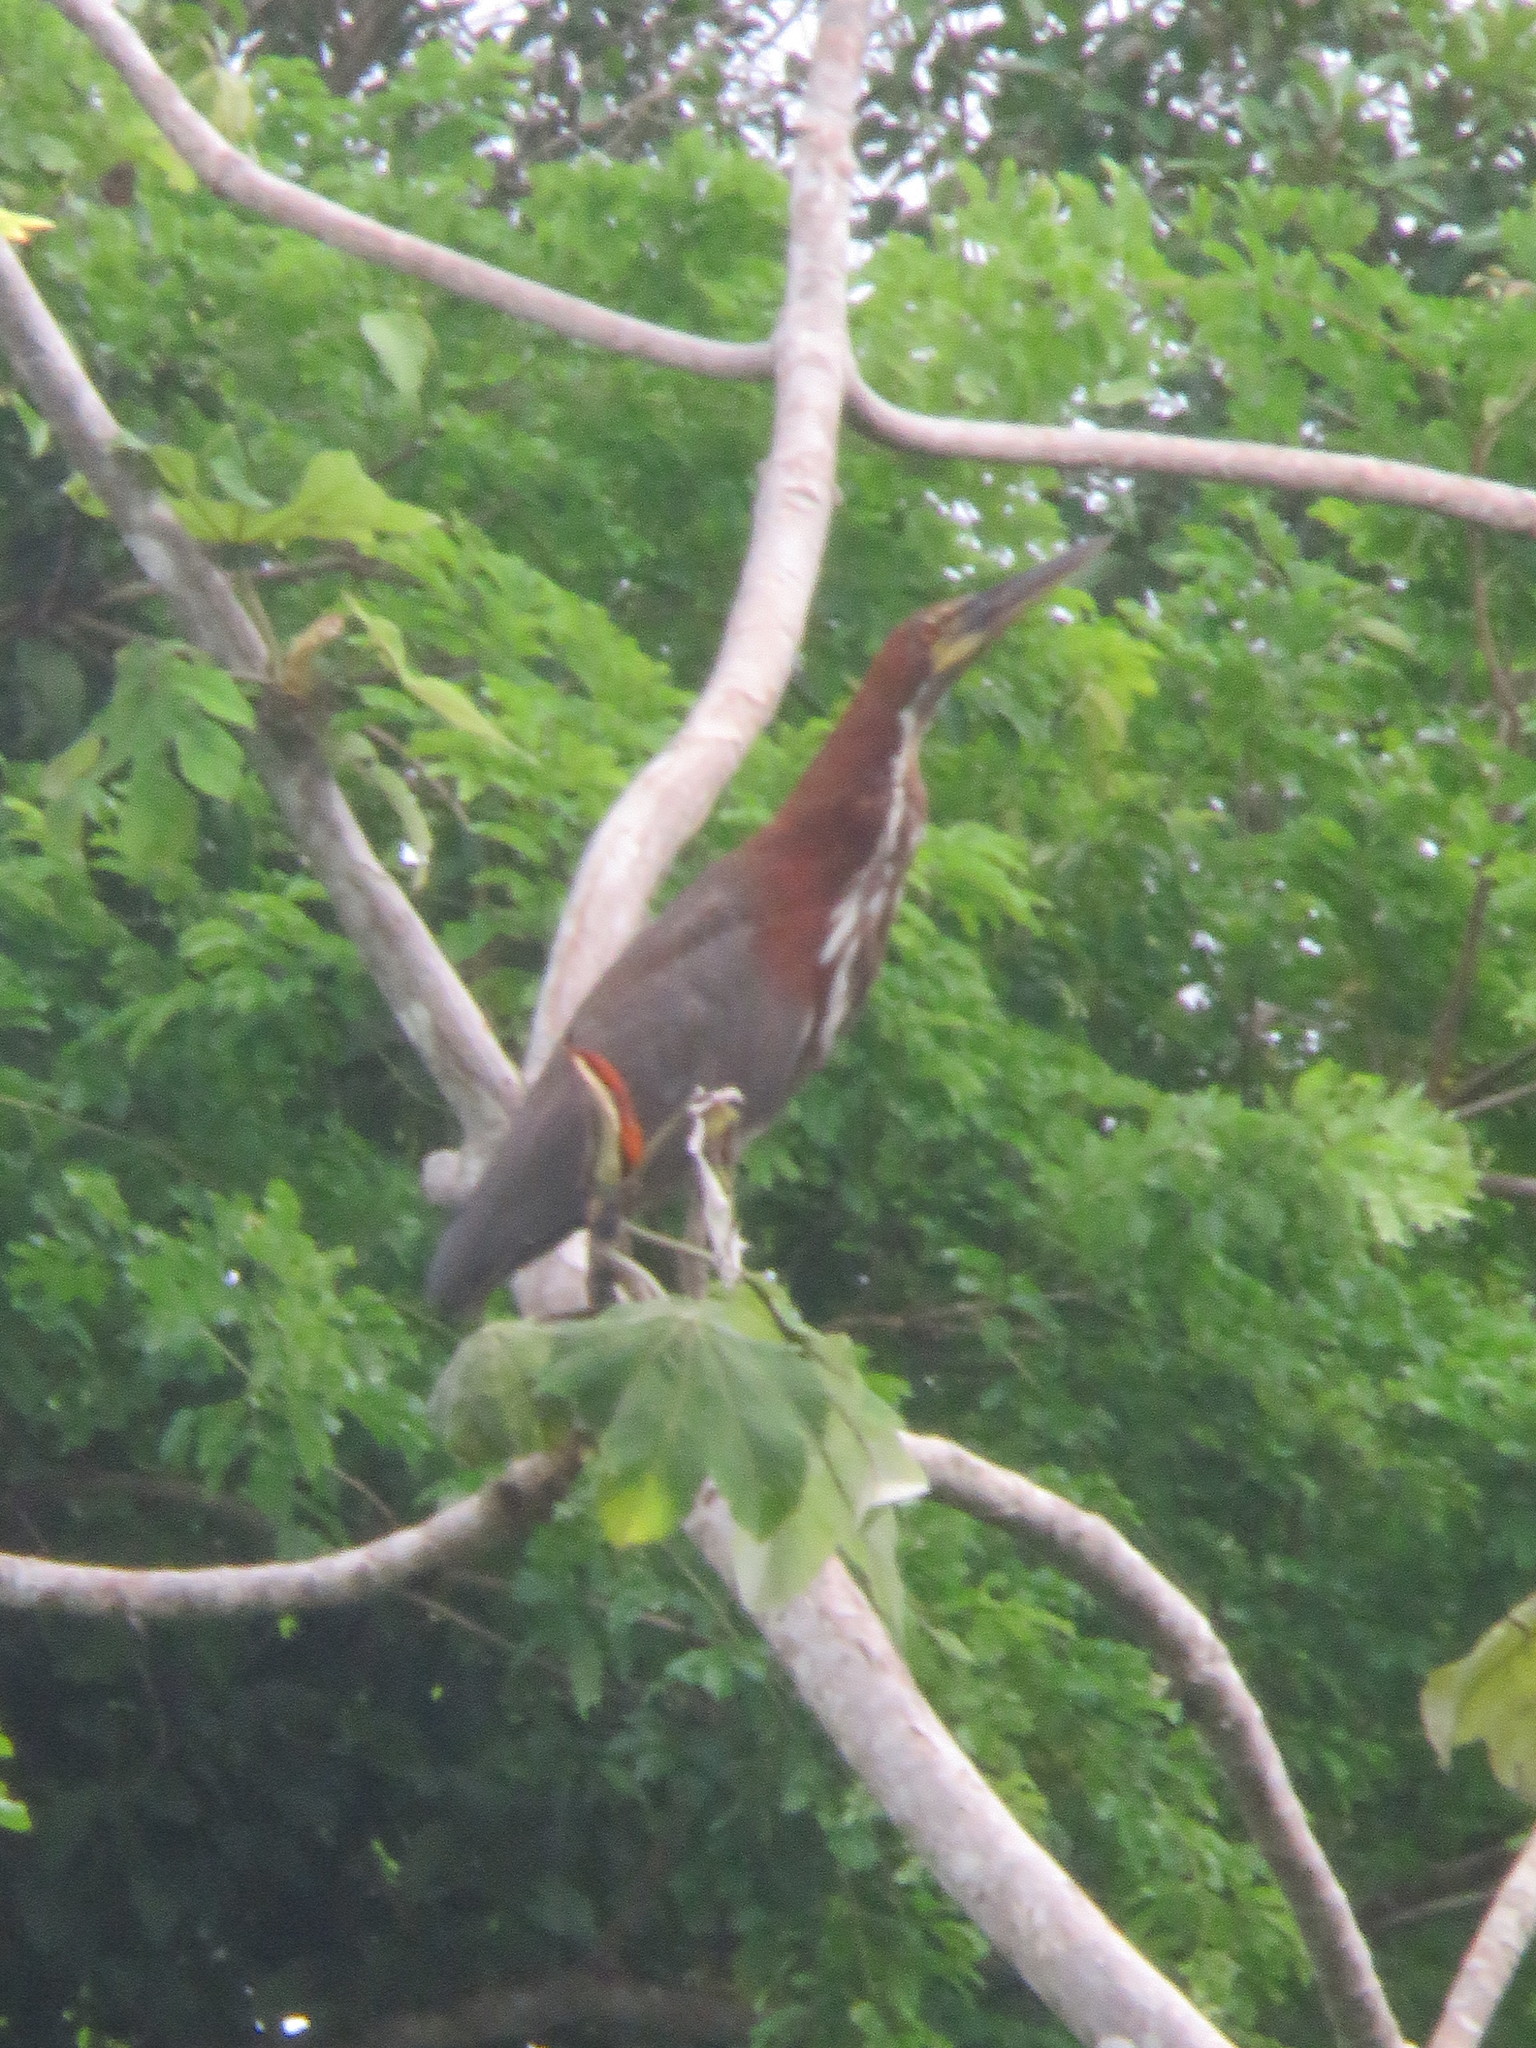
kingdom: Animalia
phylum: Chordata
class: Aves
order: Pelecaniformes
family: Ardeidae
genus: Tigrisoma
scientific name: Tigrisoma lineatum
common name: Rufescent tiger-heron
